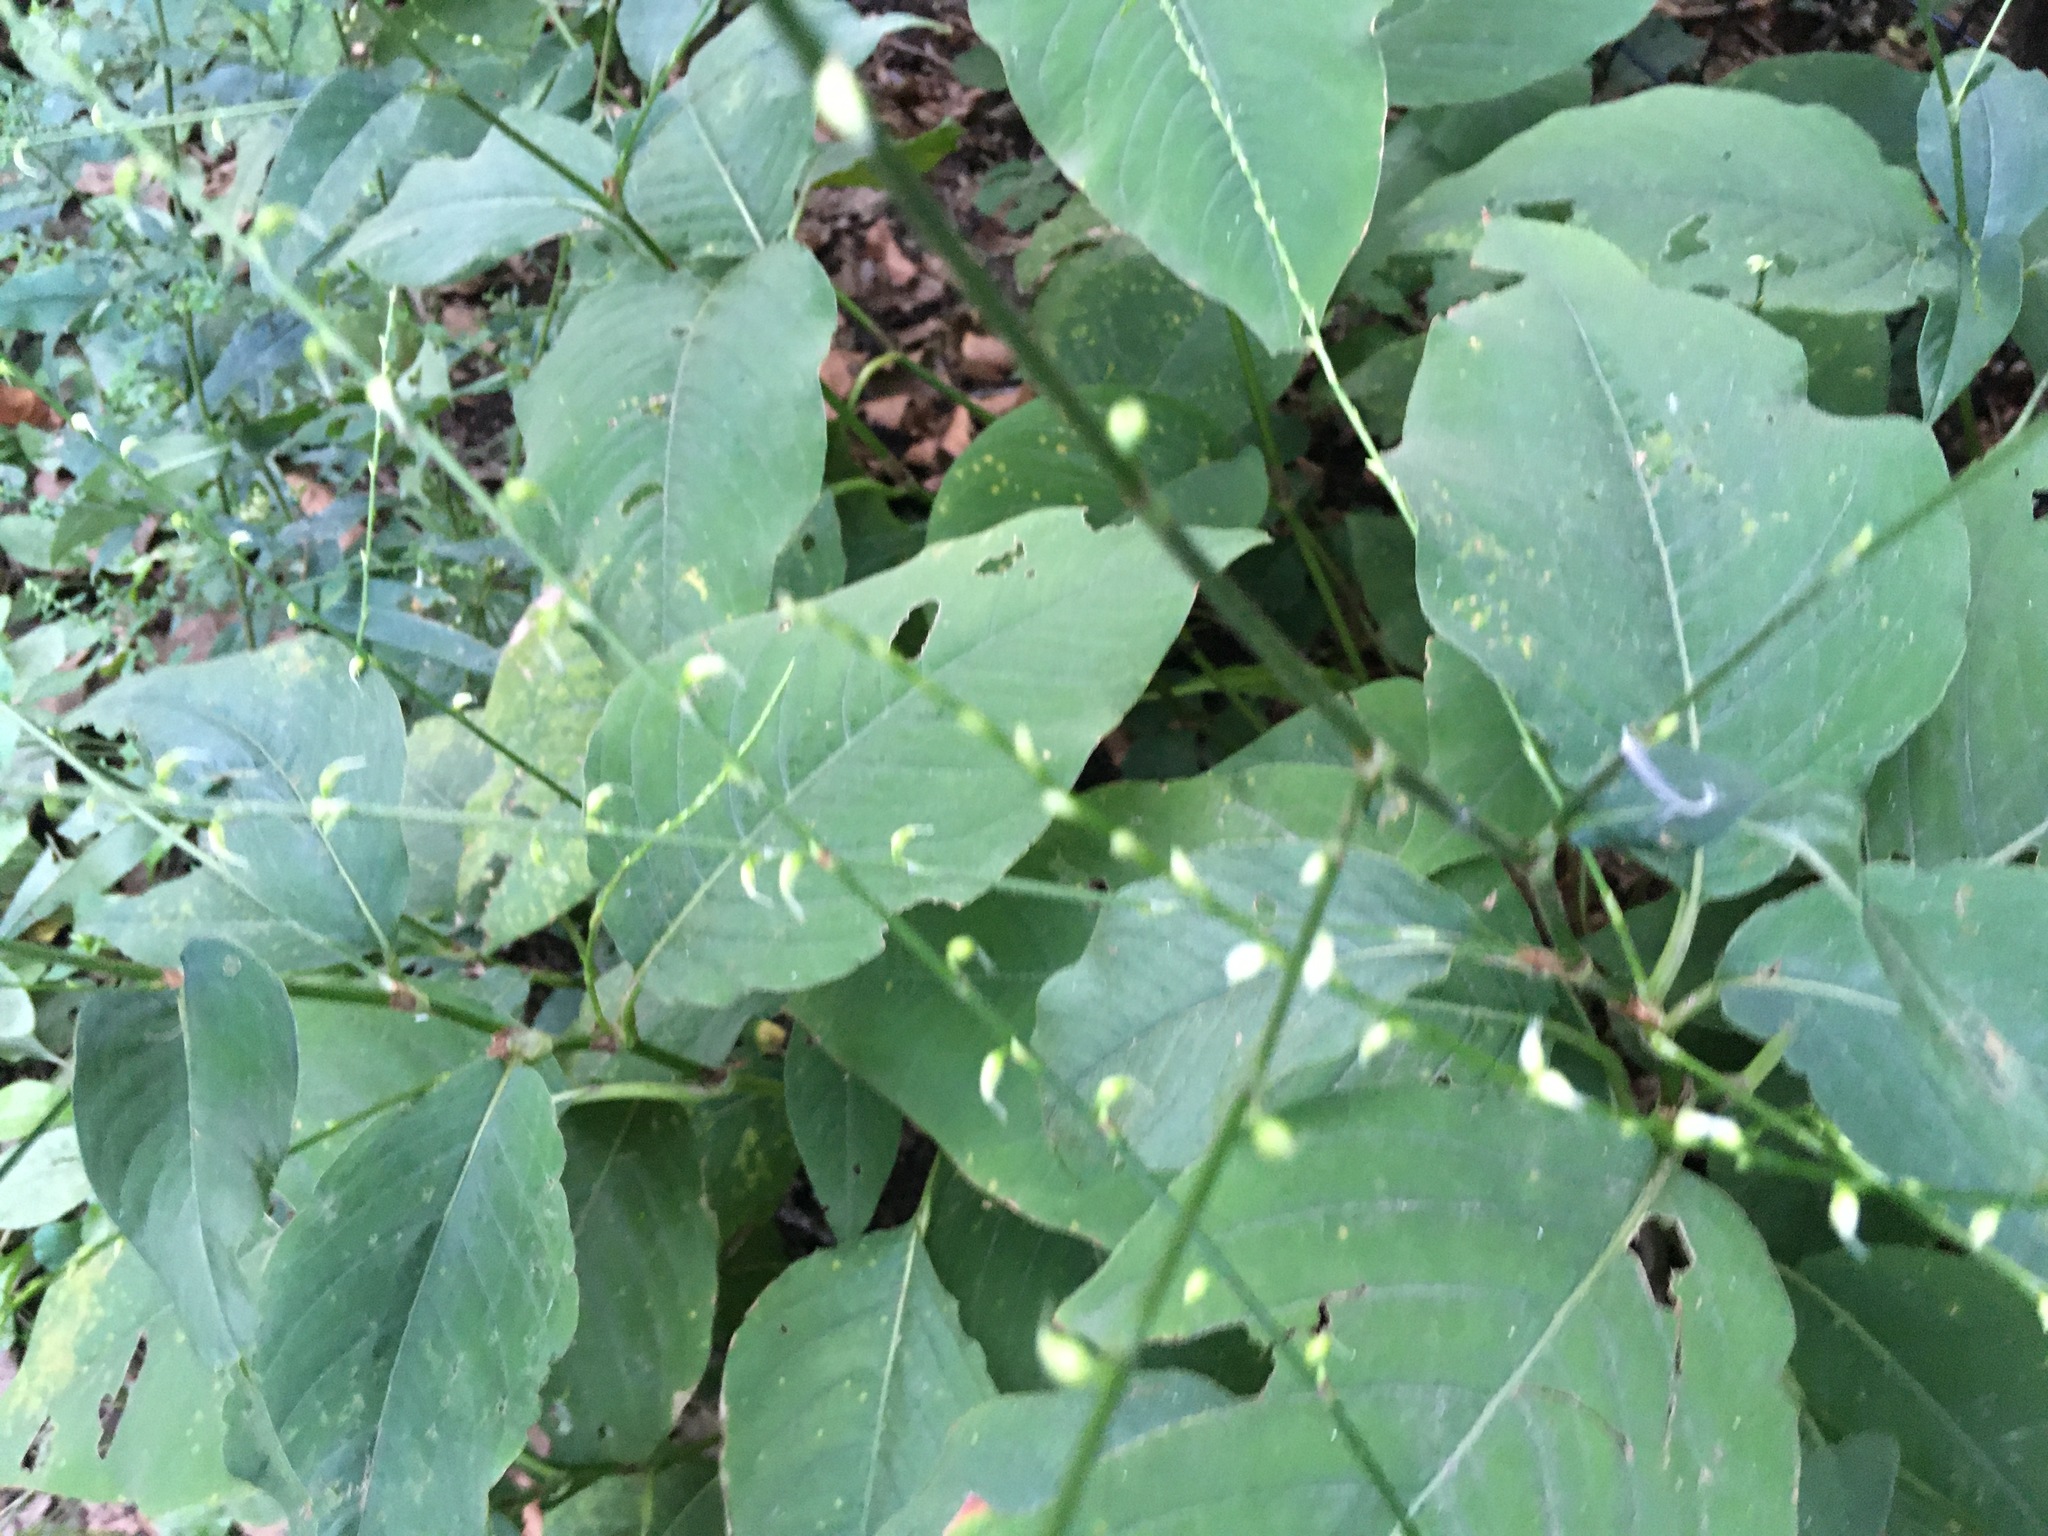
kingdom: Plantae
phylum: Tracheophyta
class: Magnoliopsida
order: Caryophyllales
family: Polygonaceae
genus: Persicaria
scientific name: Persicaria virginiana
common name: Jumpseed
